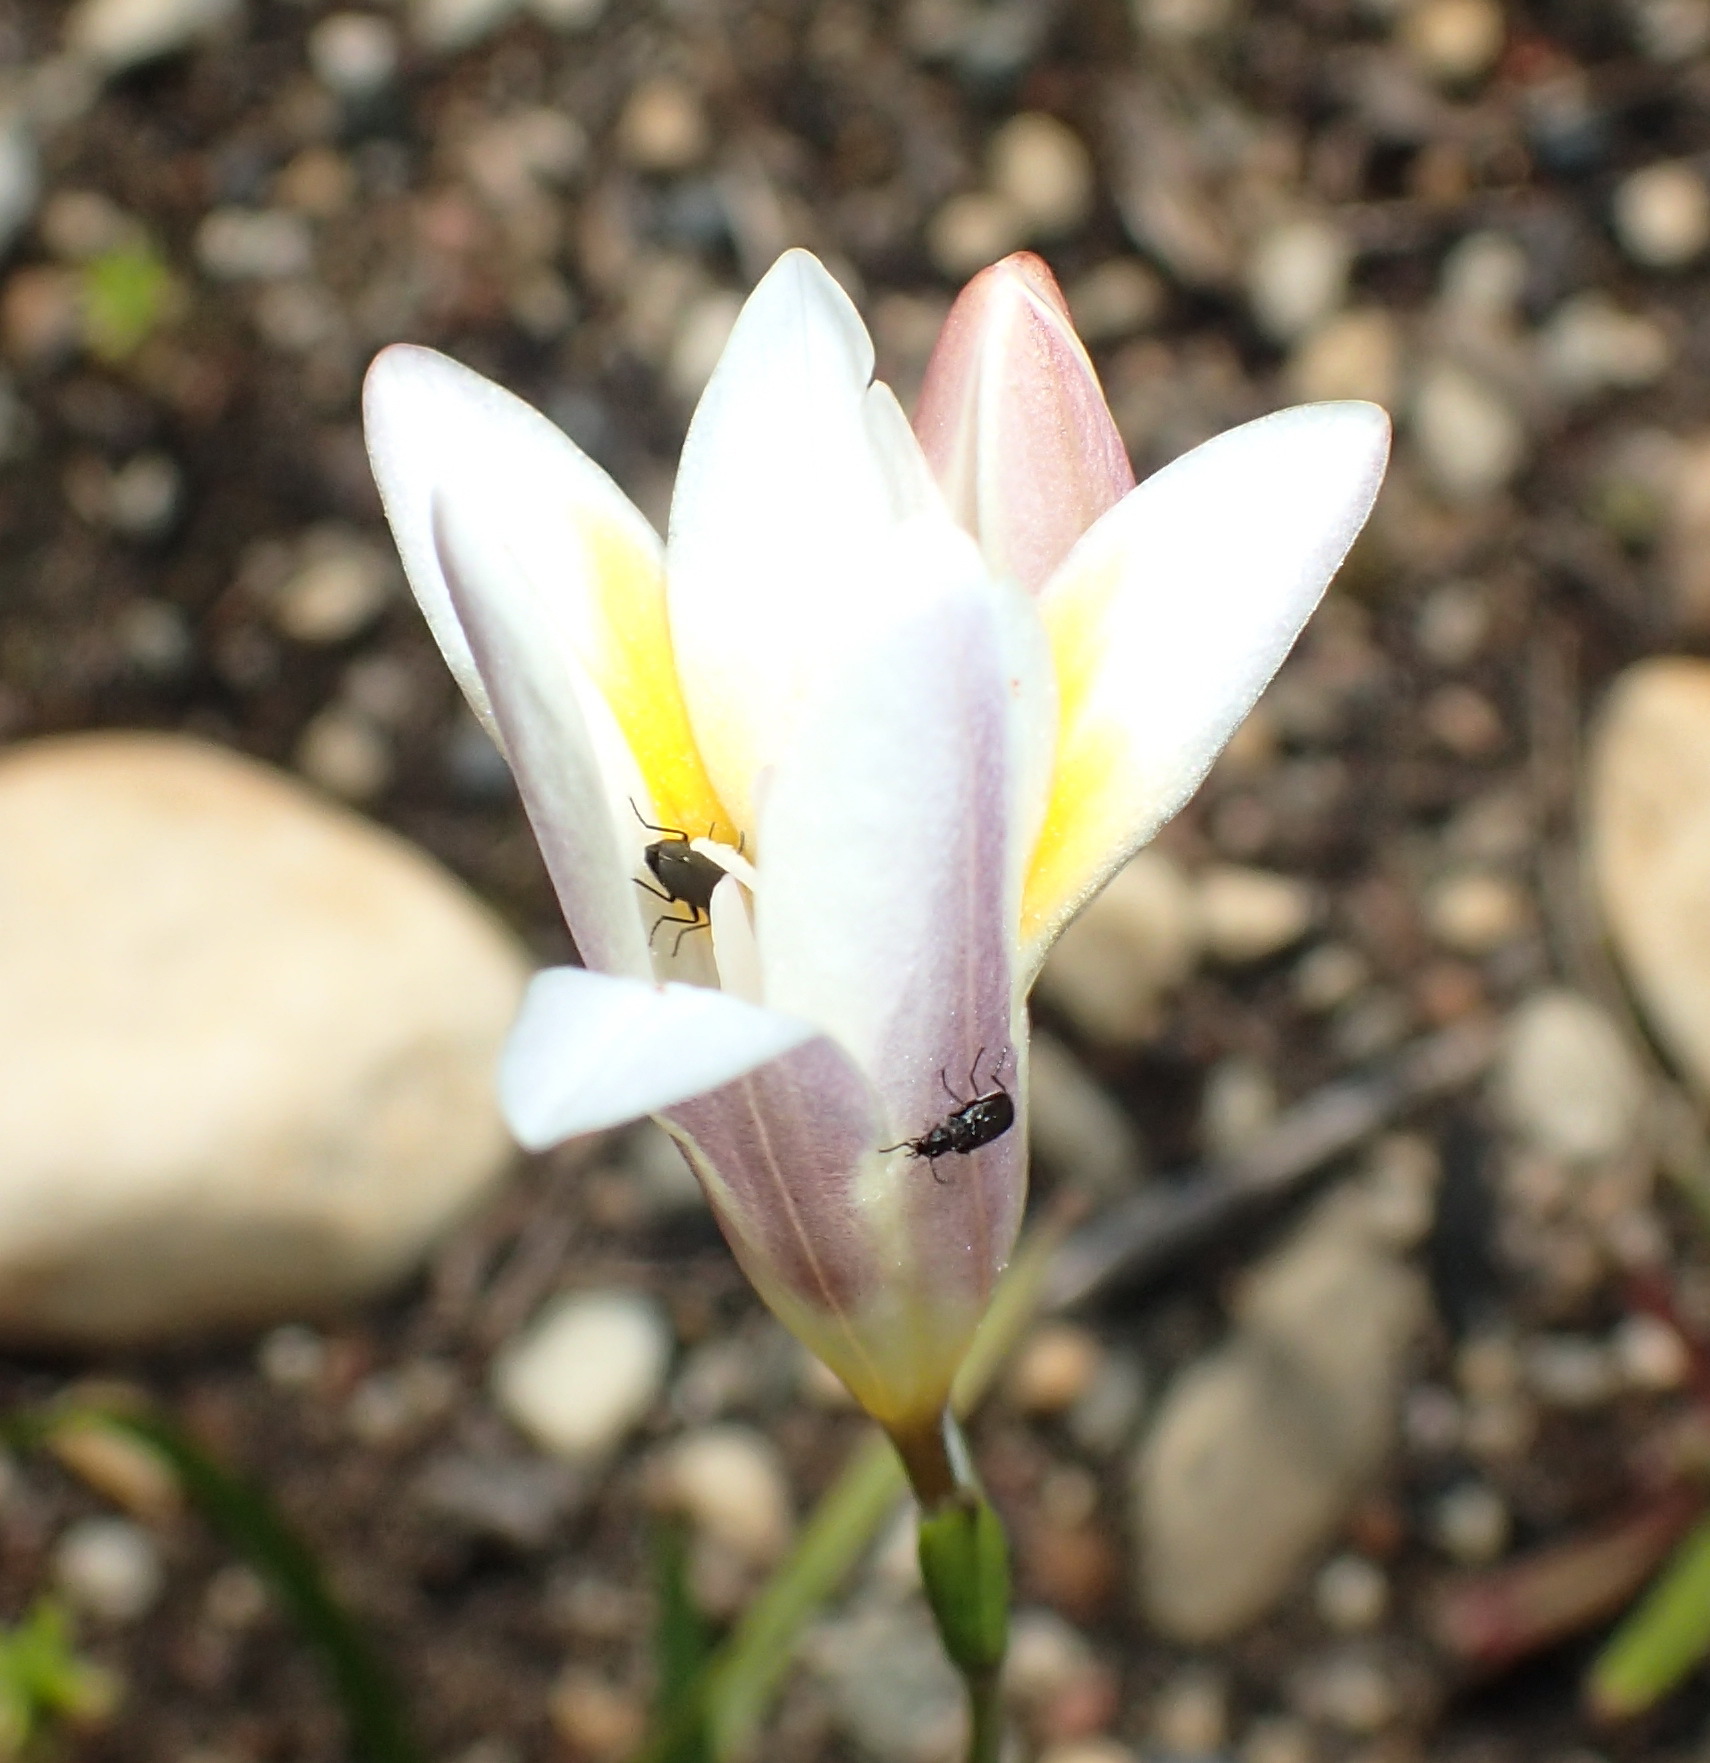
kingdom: Plantae
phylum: Tracheophyta
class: Liliopsida
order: Asparagales
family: Iridaceae
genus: Freesia
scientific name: Freesia leichtlinii
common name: Freesia
